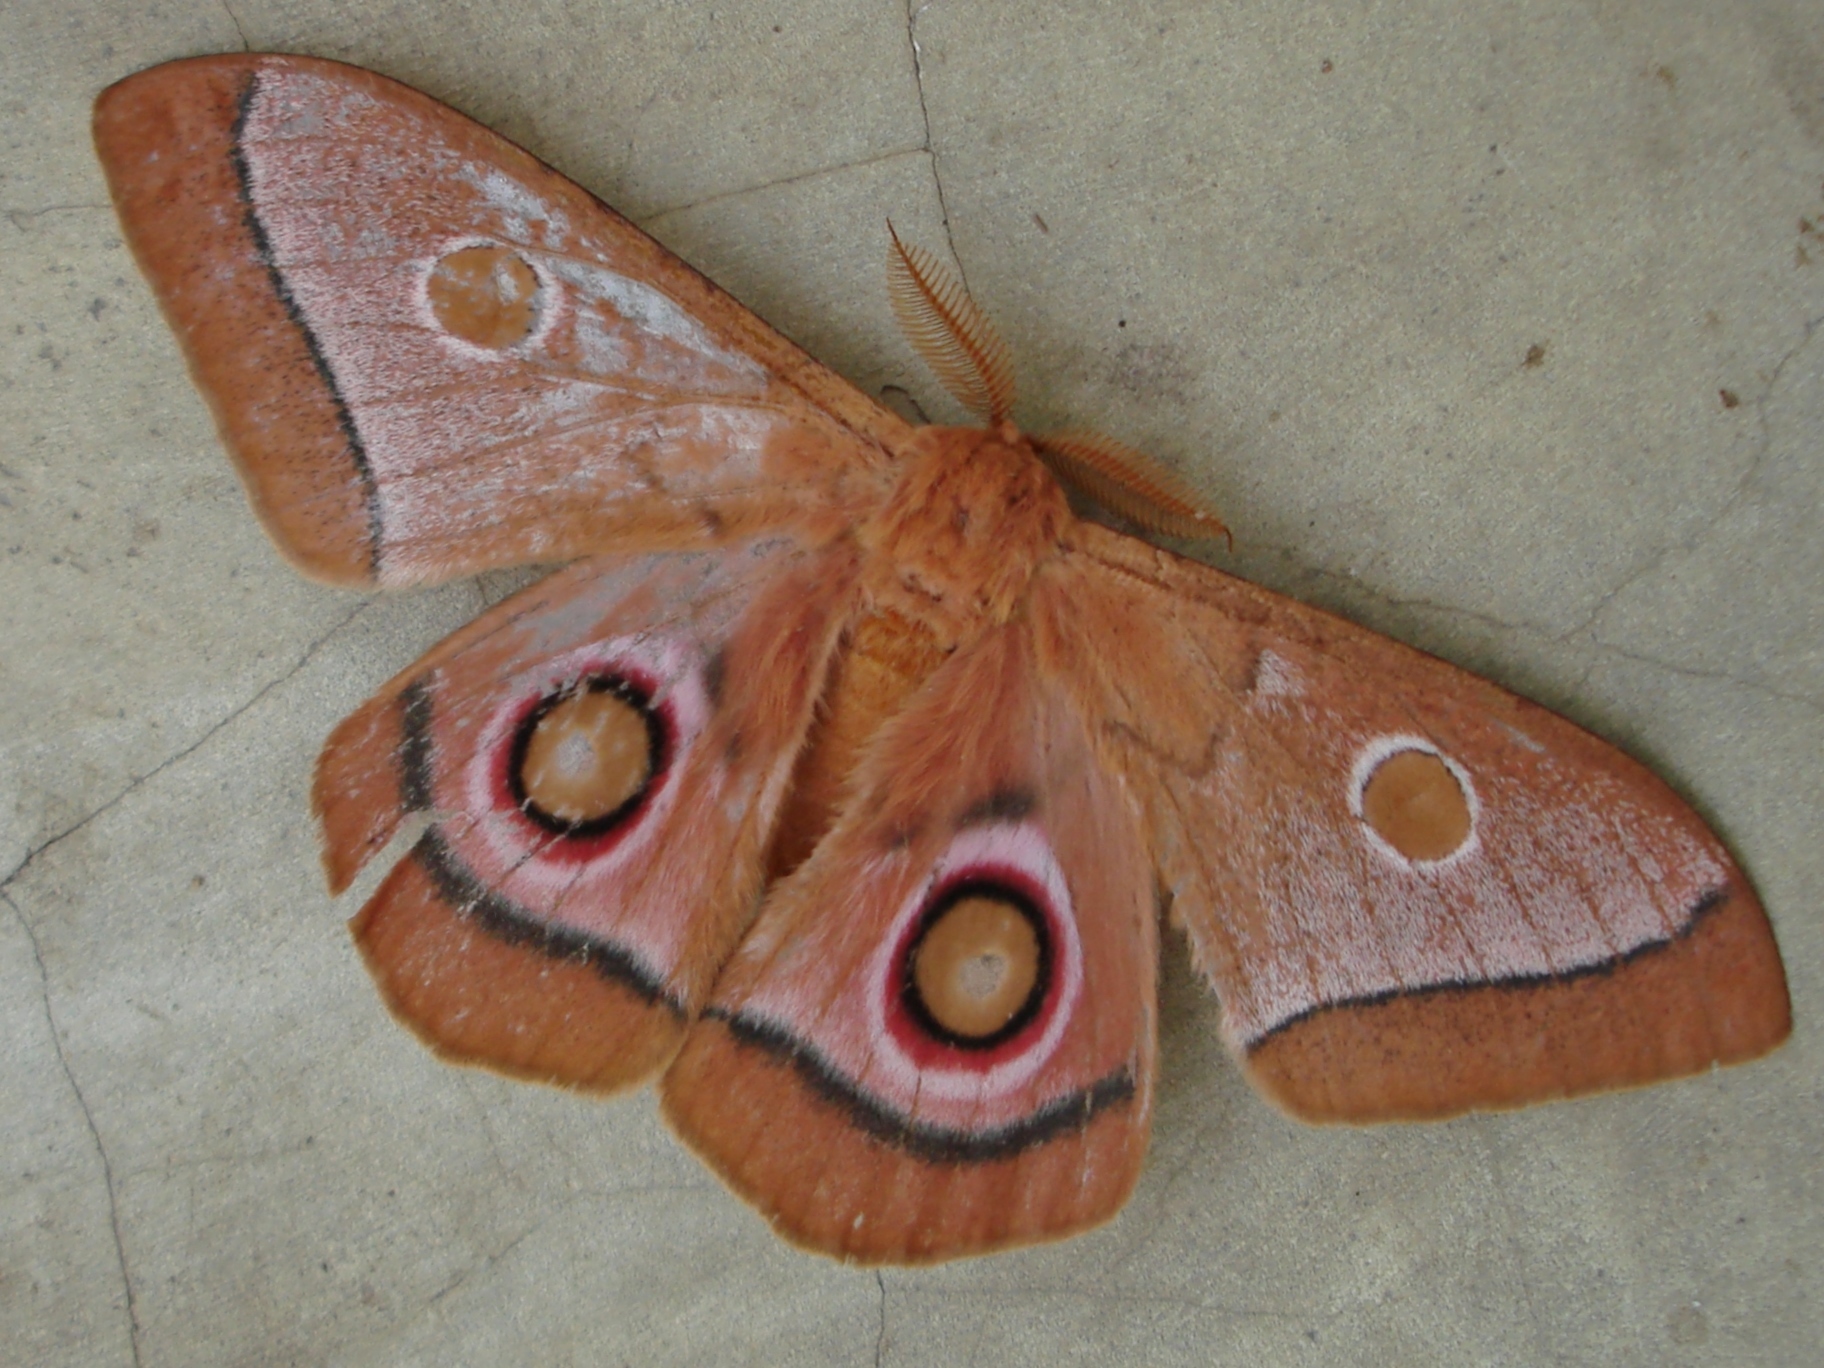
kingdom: Animalia
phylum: Arthropoda
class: Insecta
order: Lepidoptera
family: Saturniidae
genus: Bunaeopsis
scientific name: Bunaeopsis licharbas
